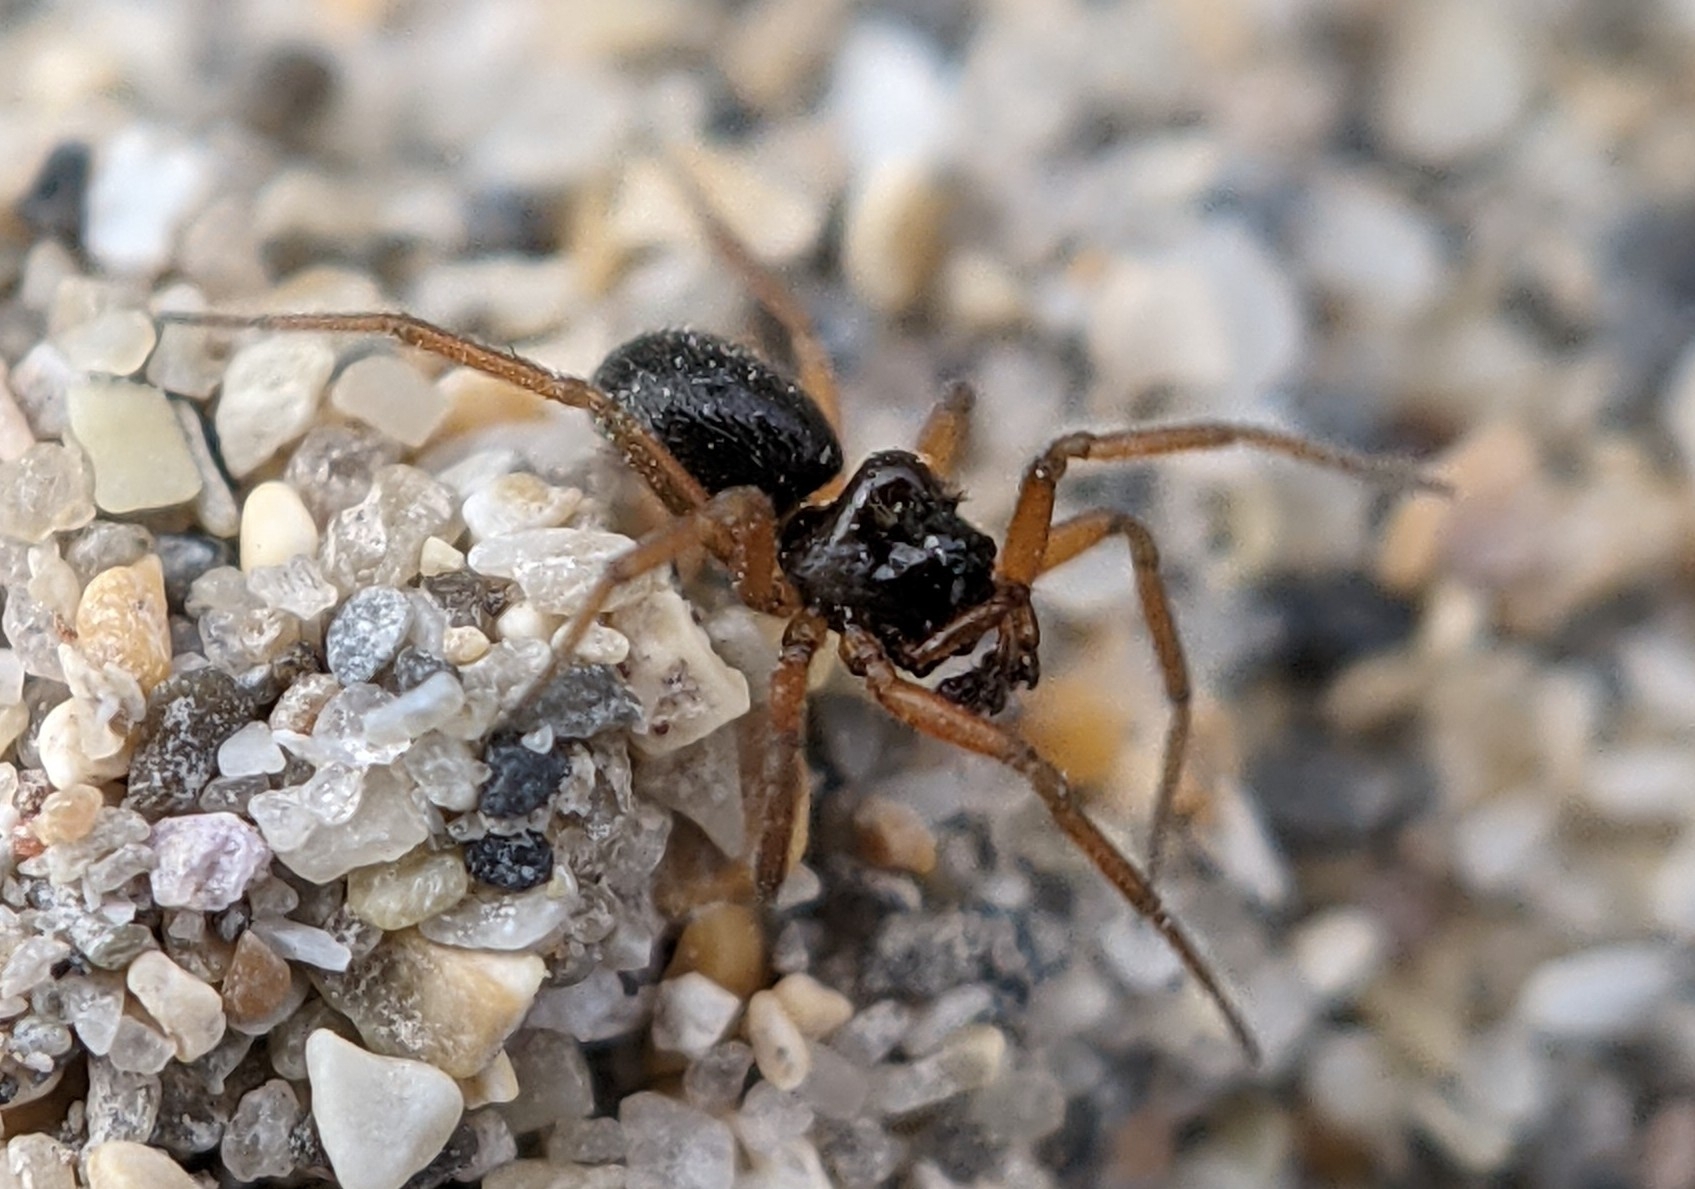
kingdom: Animalia
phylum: Arthropoda
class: Arachnida
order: Araneae
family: Linyphiidae
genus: Oedothorax
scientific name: Oedothorax gibbosus
